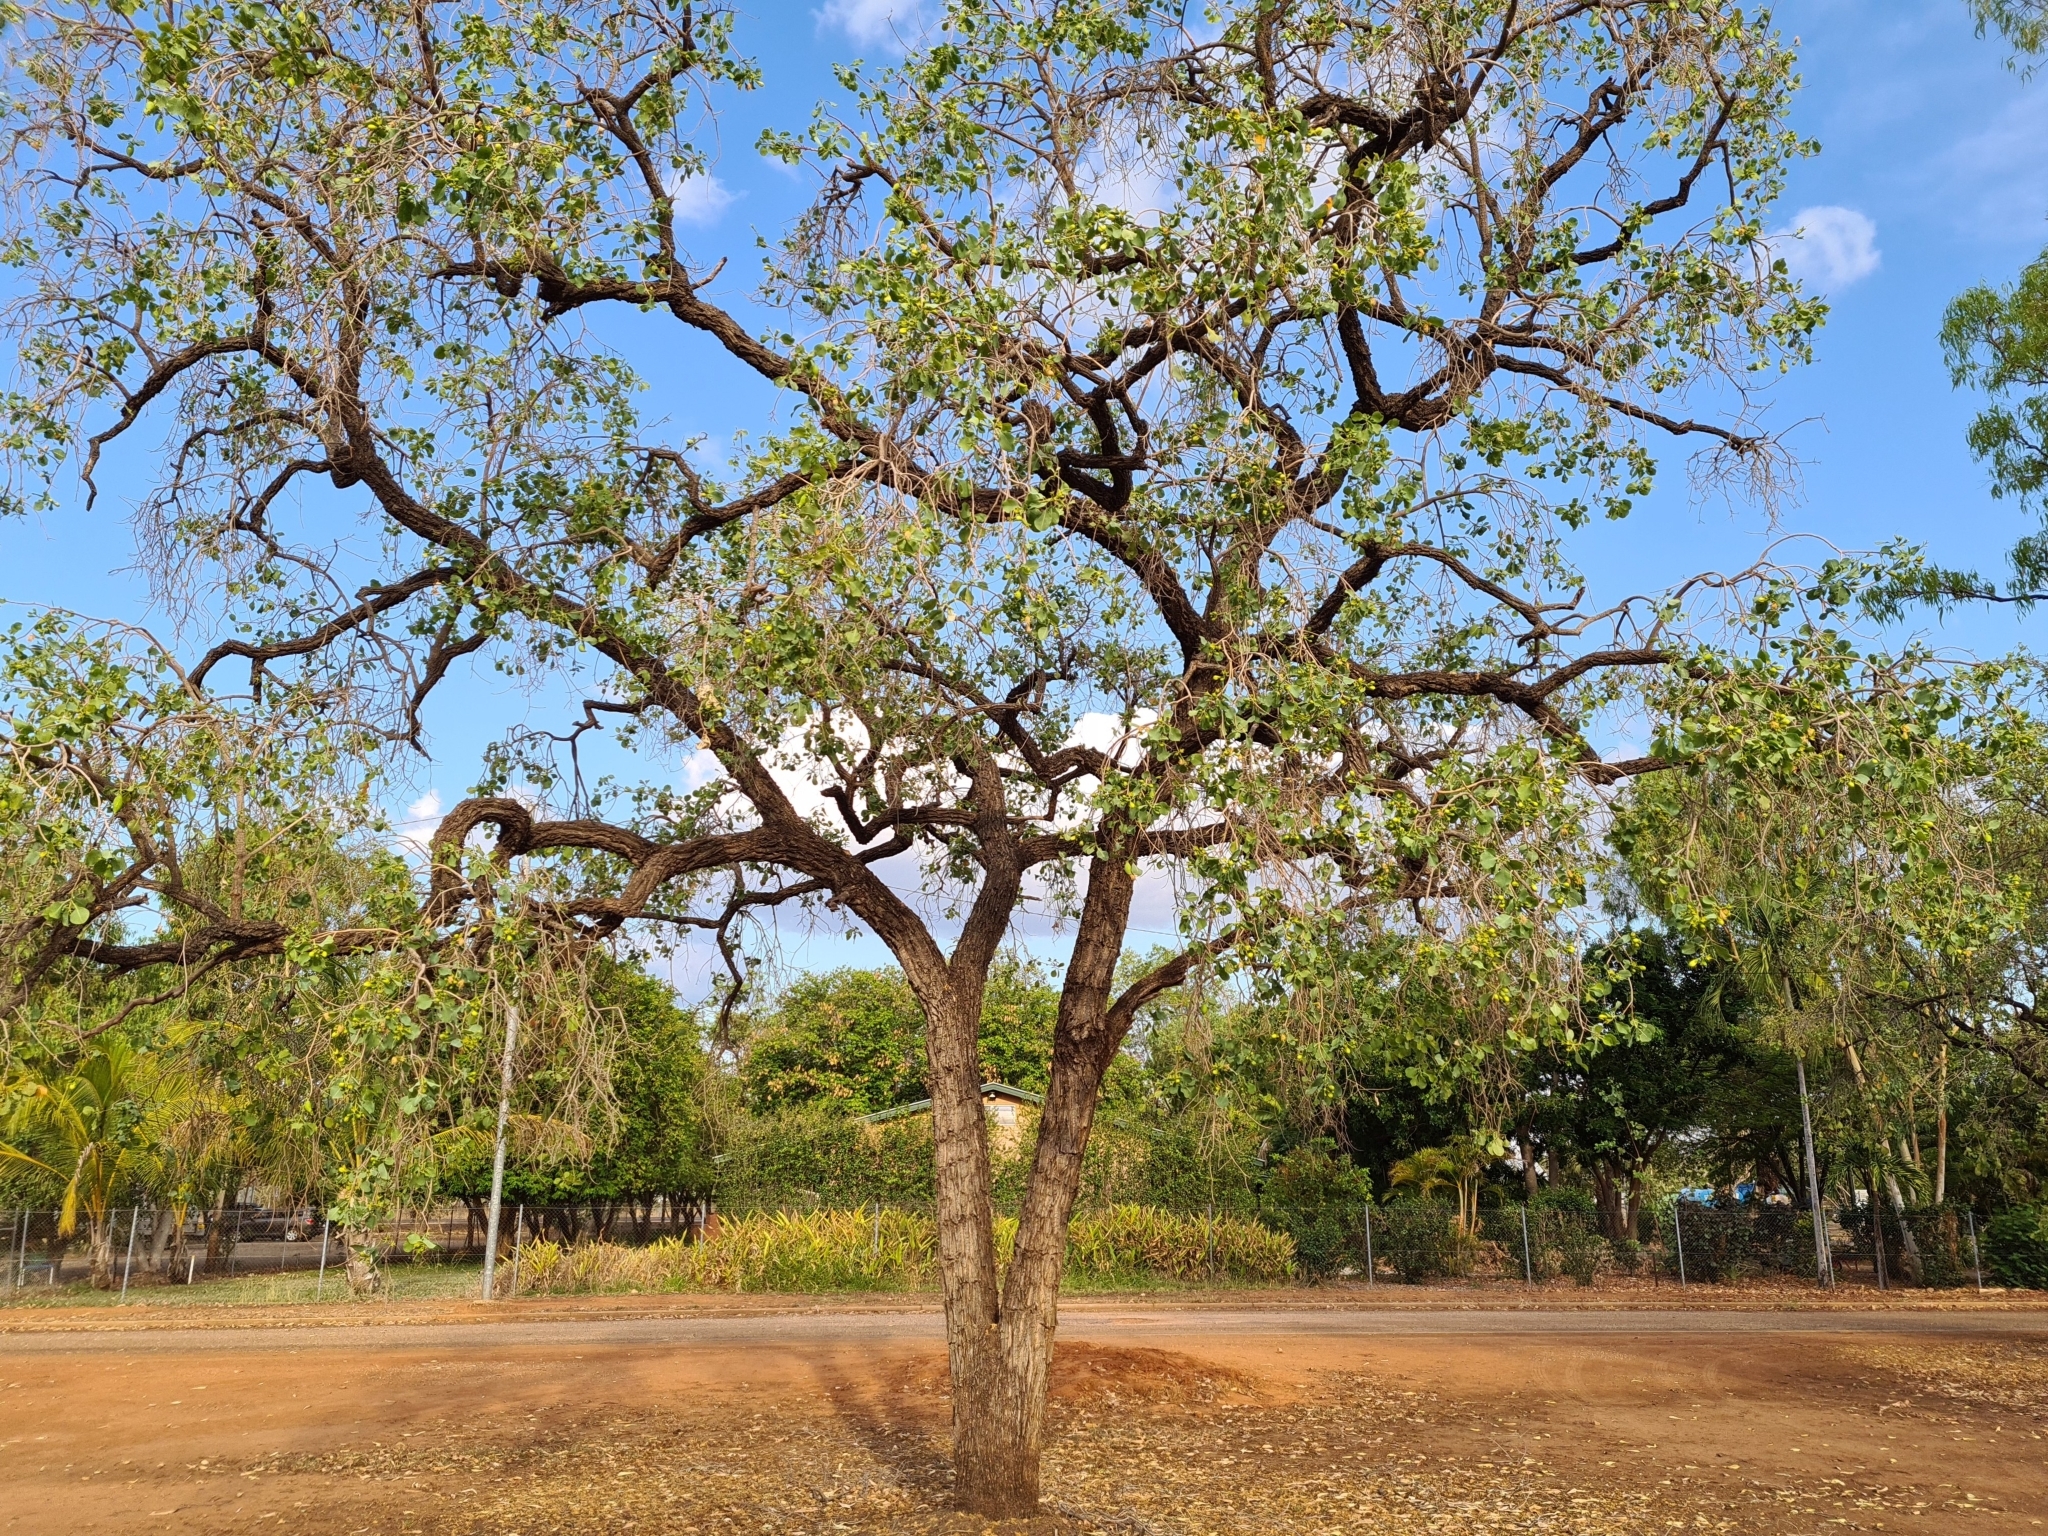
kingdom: Plantae
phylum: Tracheophyta
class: Magnoliopsida
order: Ericales
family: Lecythidaceae
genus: Planchonia
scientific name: Planchonia careya
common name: Cockatoo-apple
